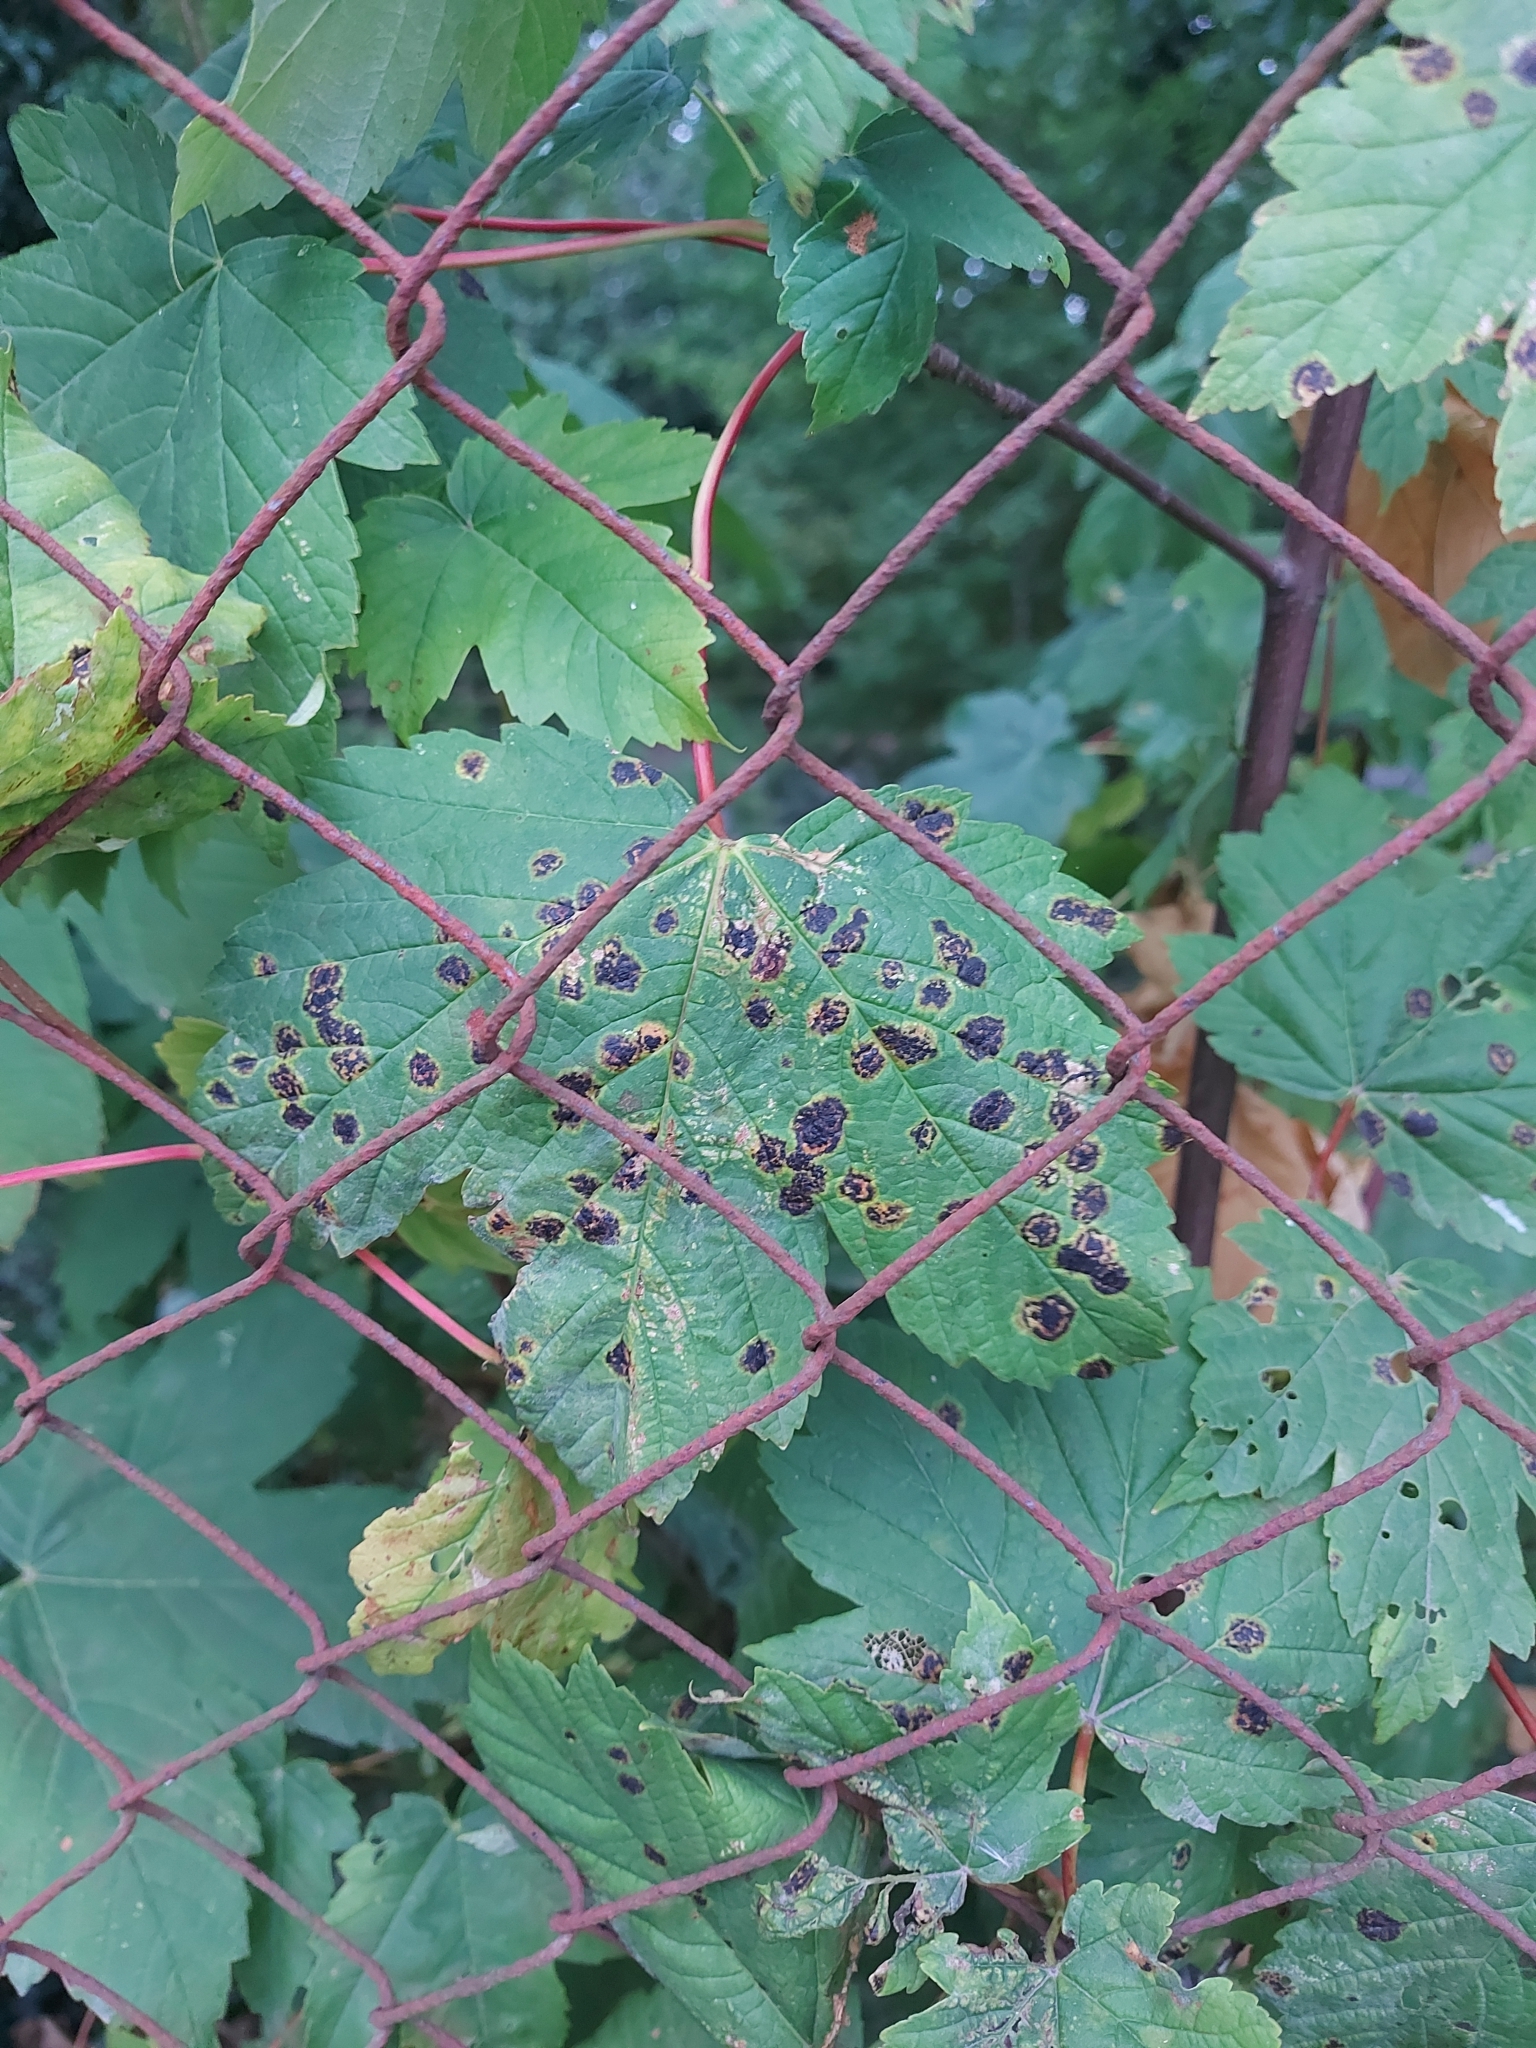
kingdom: Fungi
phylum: Ascomycota
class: Leotiomycetes
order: Rhytismatales
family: Rhytismataceae
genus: Rhytisma
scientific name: Rhytisma acerinum
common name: European tar spot
